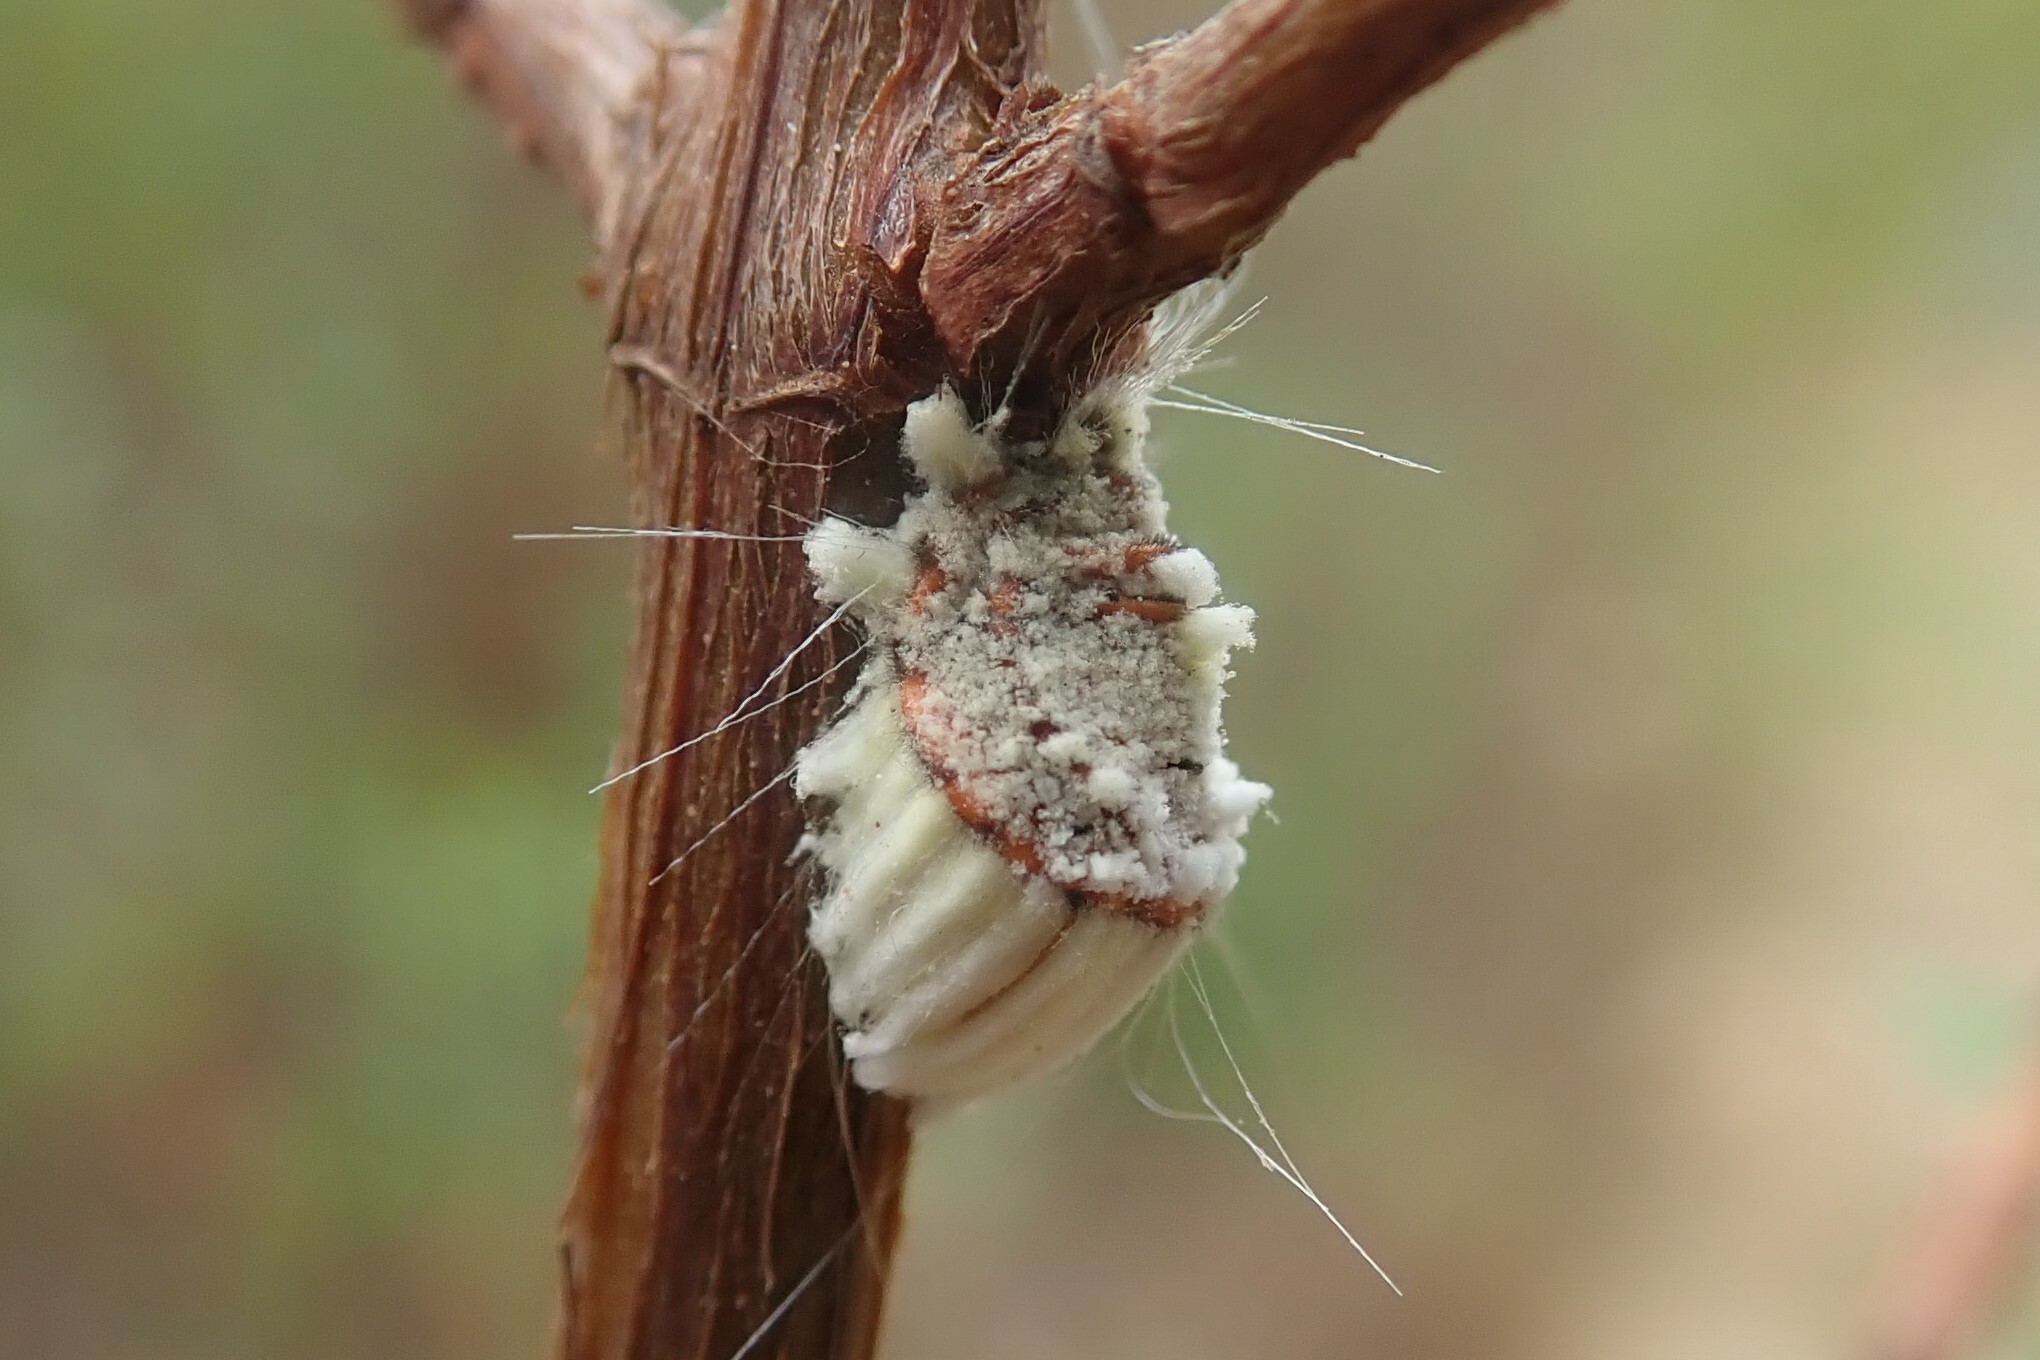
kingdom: Animalia
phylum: Arthropoda
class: Insecta
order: Hemiptera
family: Margarodidae
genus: Icerya
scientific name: Icerya purchasi
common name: Cottony cushion scale
